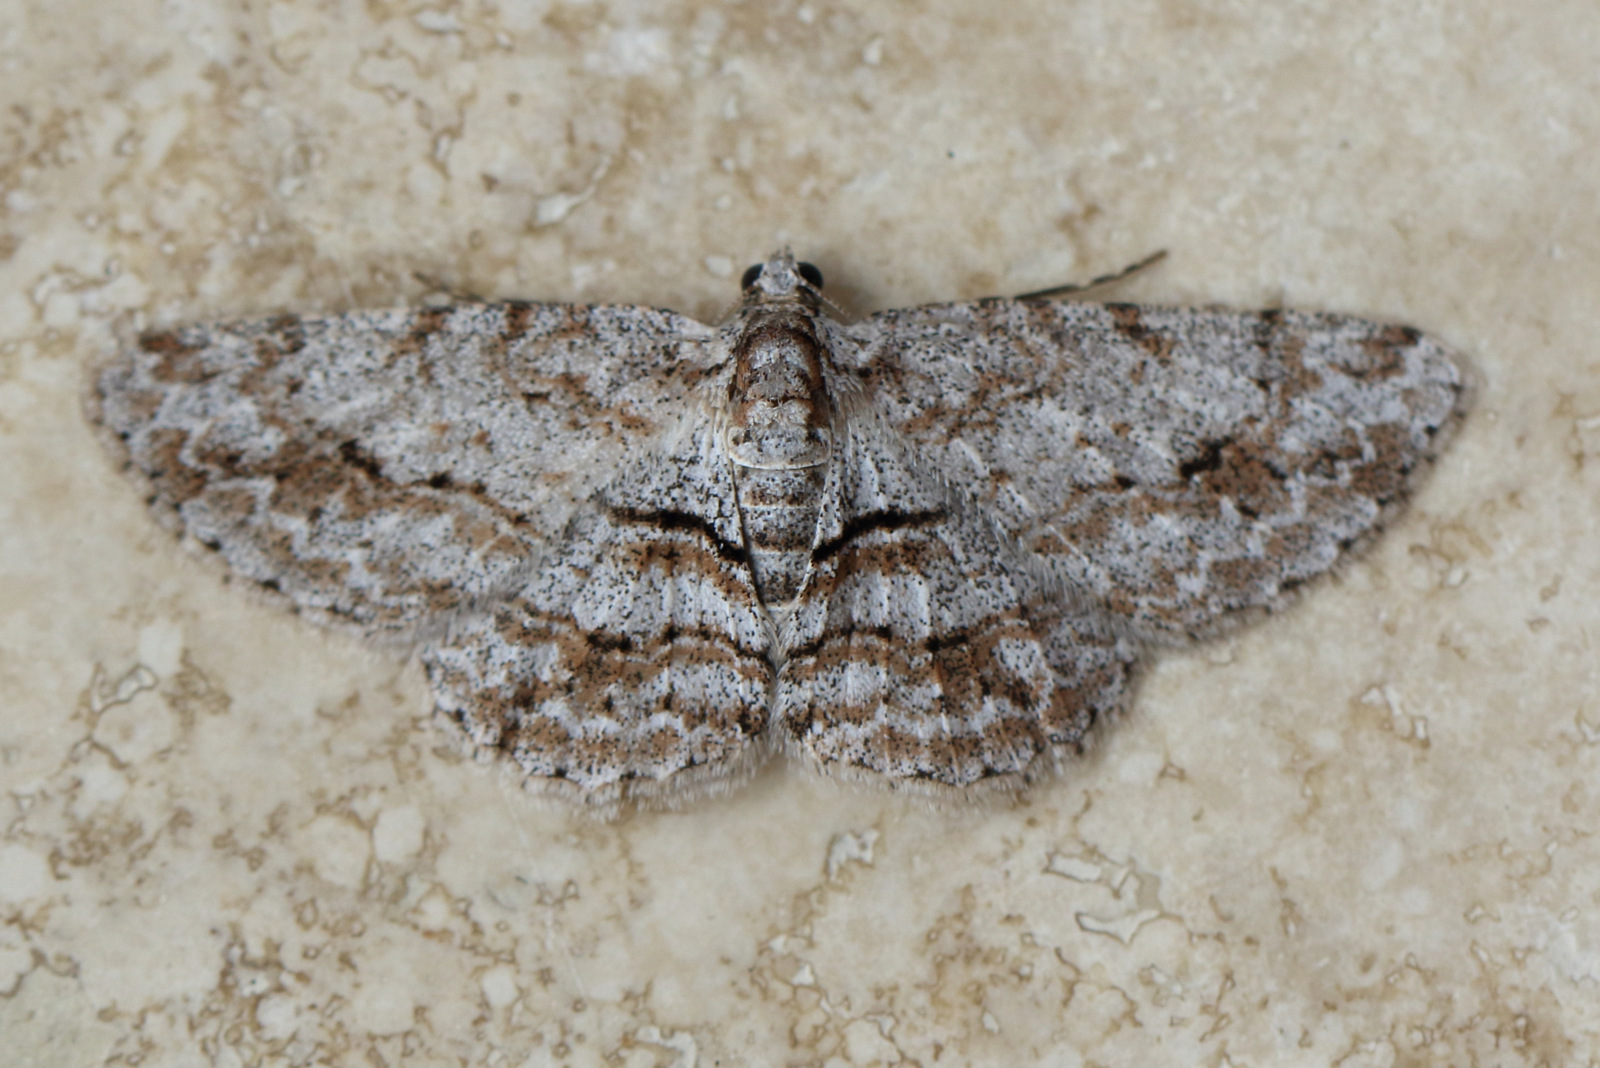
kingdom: Animalia
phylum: Arthropoda
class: Insecta
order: Lepidoptera
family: Geometridae
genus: Didymoctenia
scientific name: Didymoctenia exsuperata
